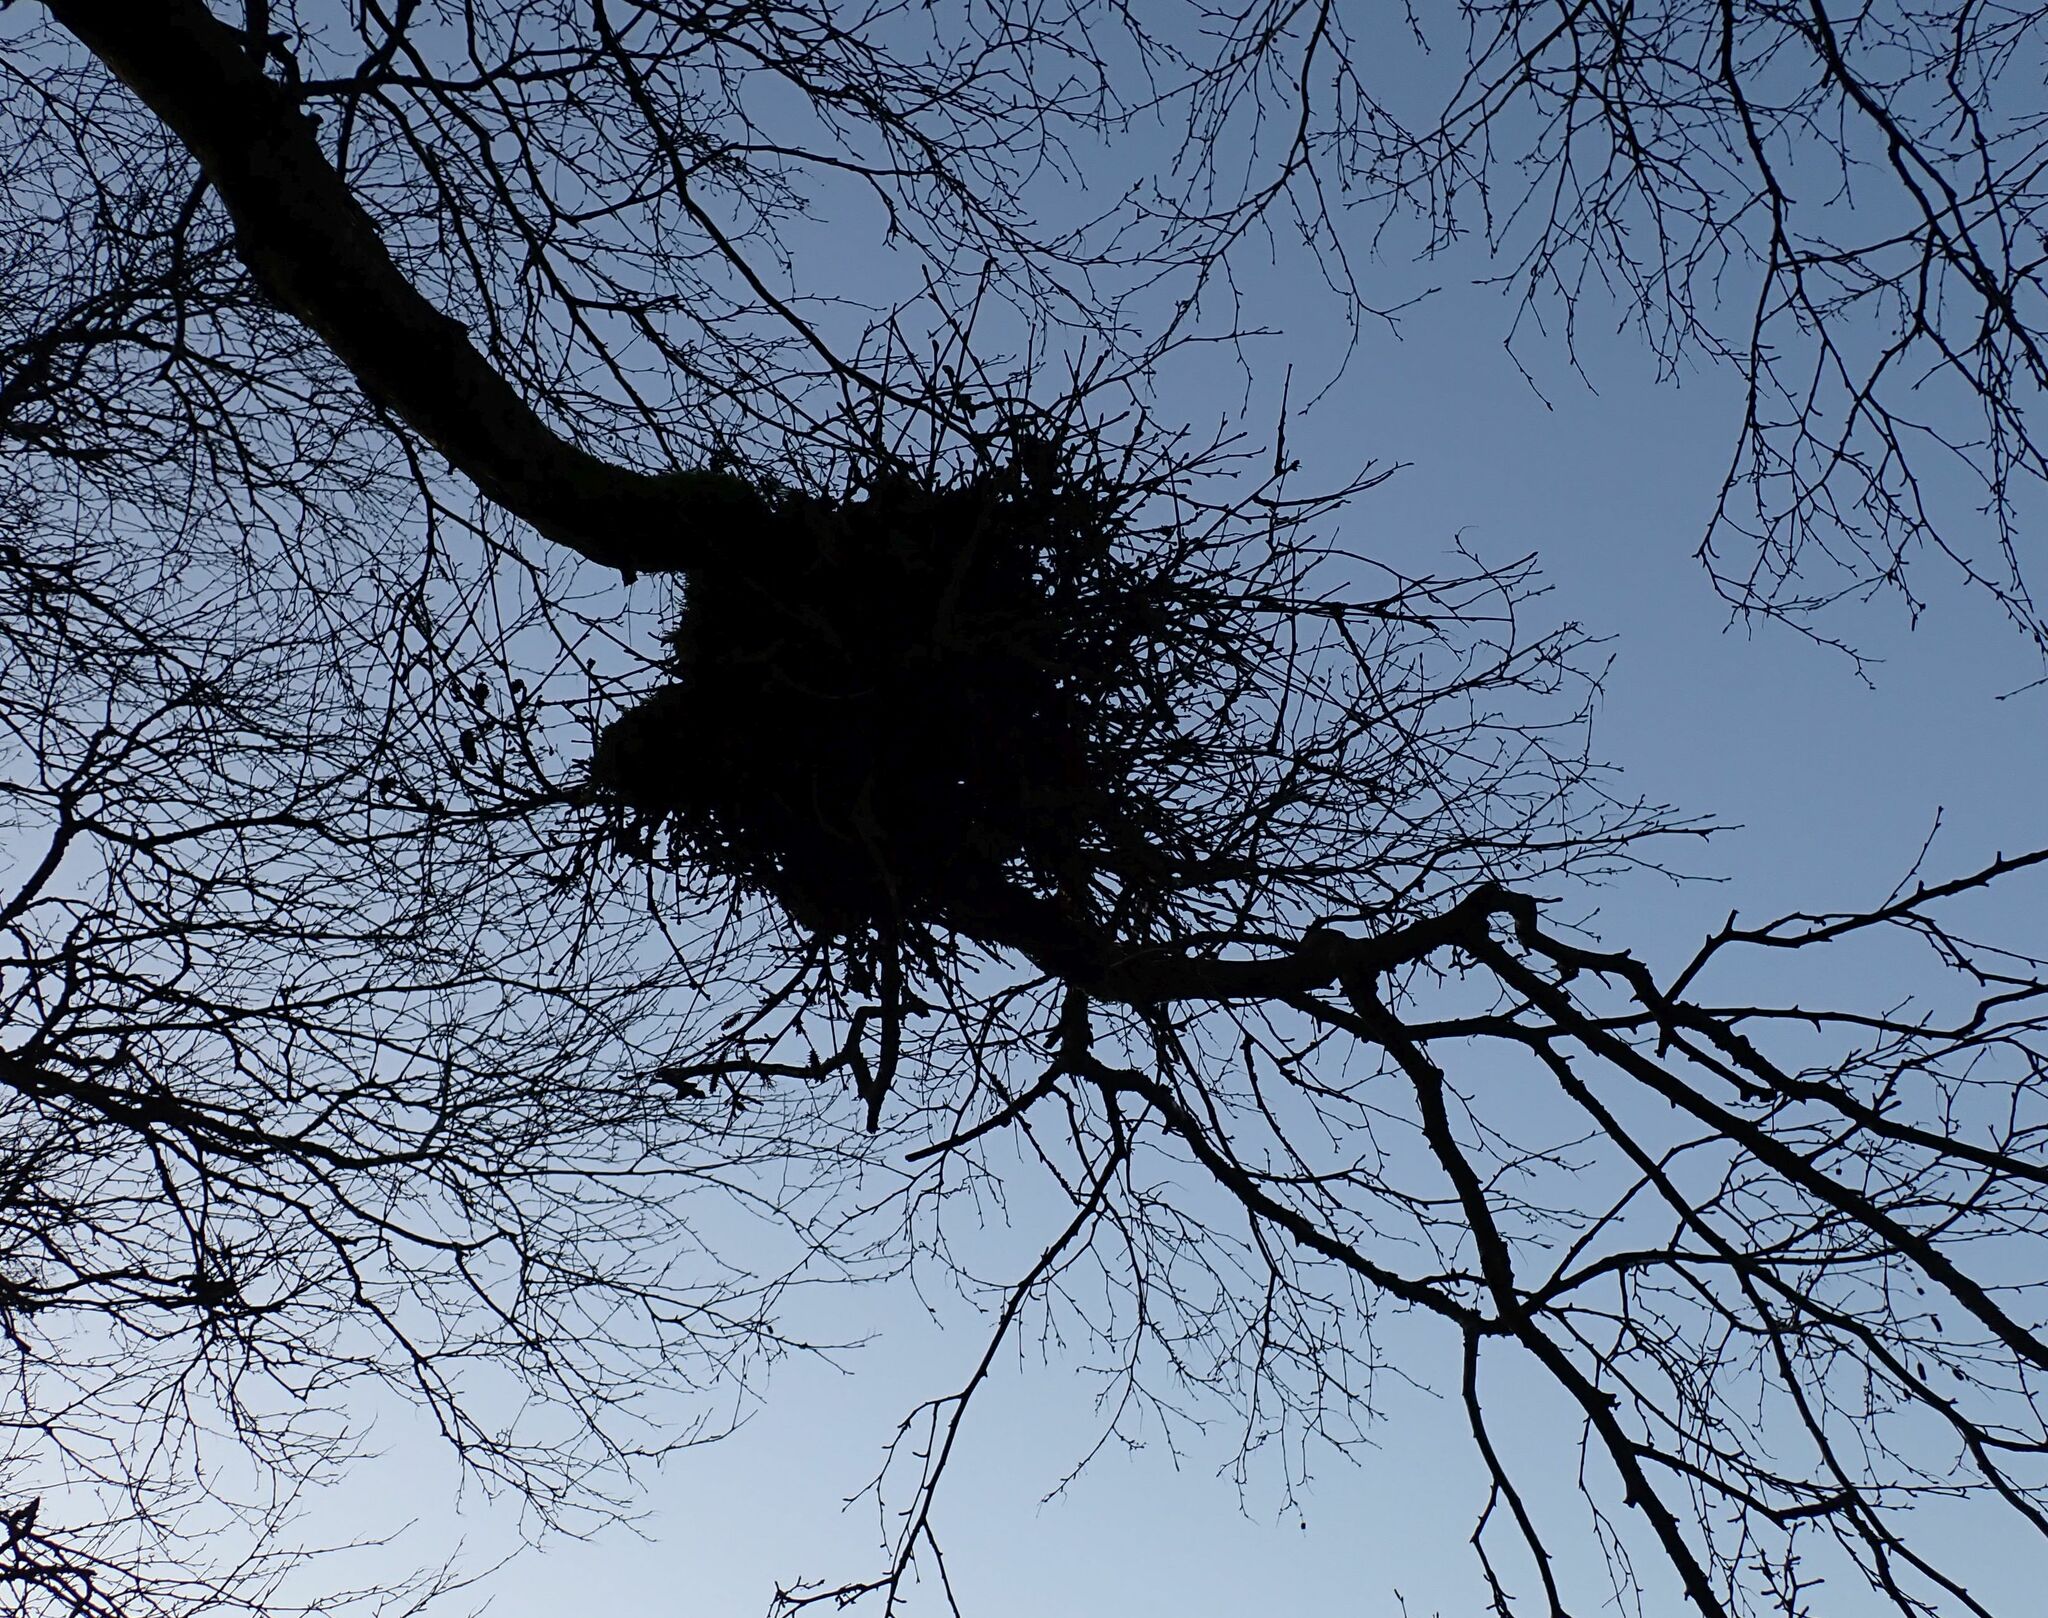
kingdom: Fungi
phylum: Ascomycota
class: Taphrinomycetes
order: Taphrinales
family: Taphrinaceae
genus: Taphrina
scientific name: Taphrina betulina
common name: Birch besom
